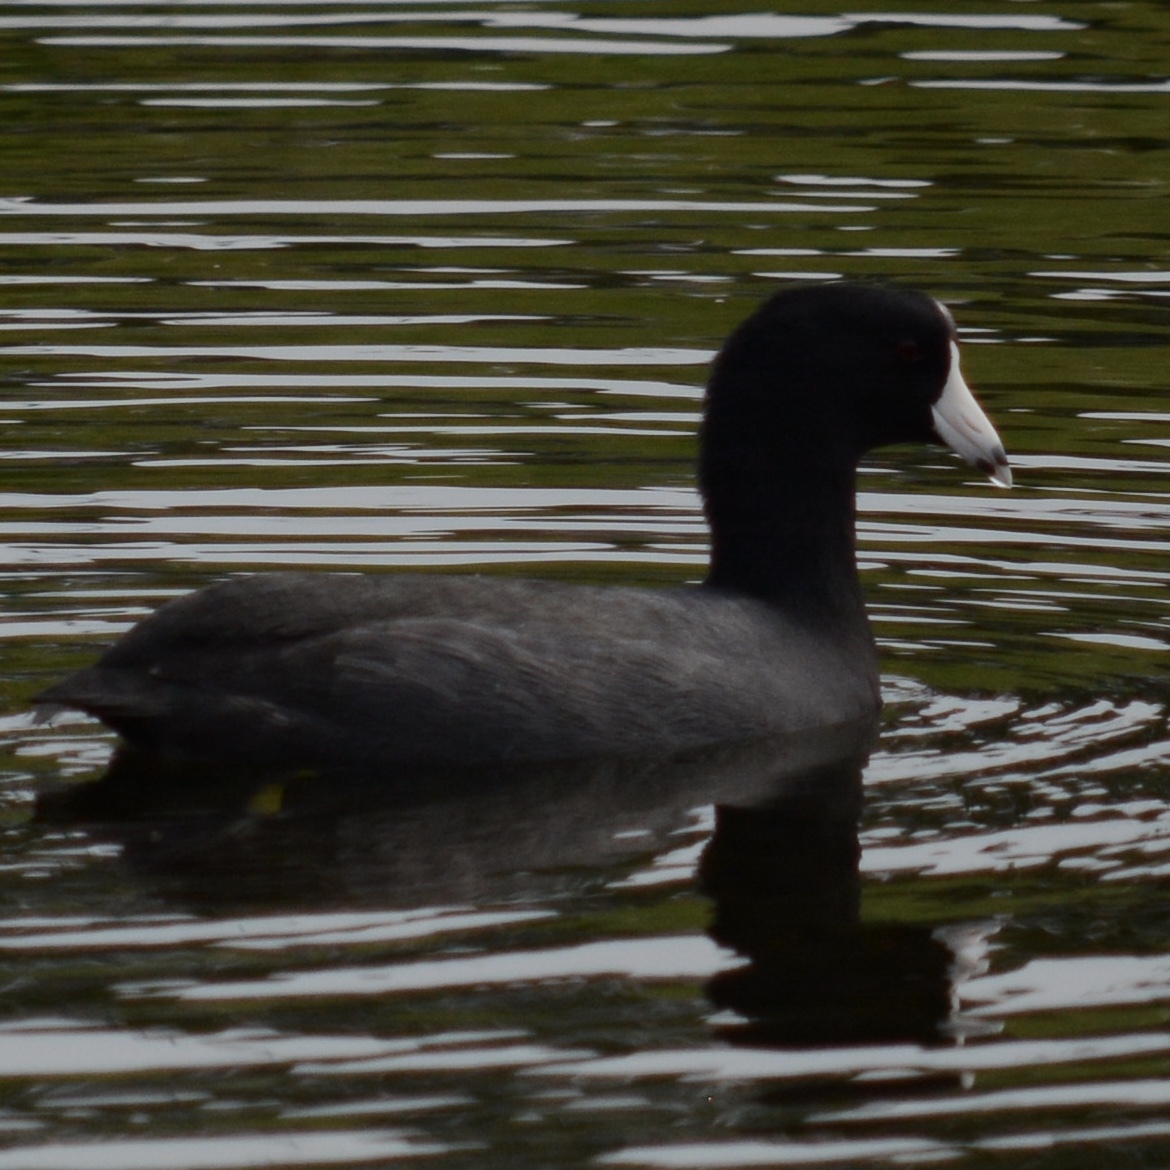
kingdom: Animalia
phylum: Chordata
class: Aves
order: Gruiformes
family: Rallidae
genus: Fulica
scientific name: Fulica americana
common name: American coot
